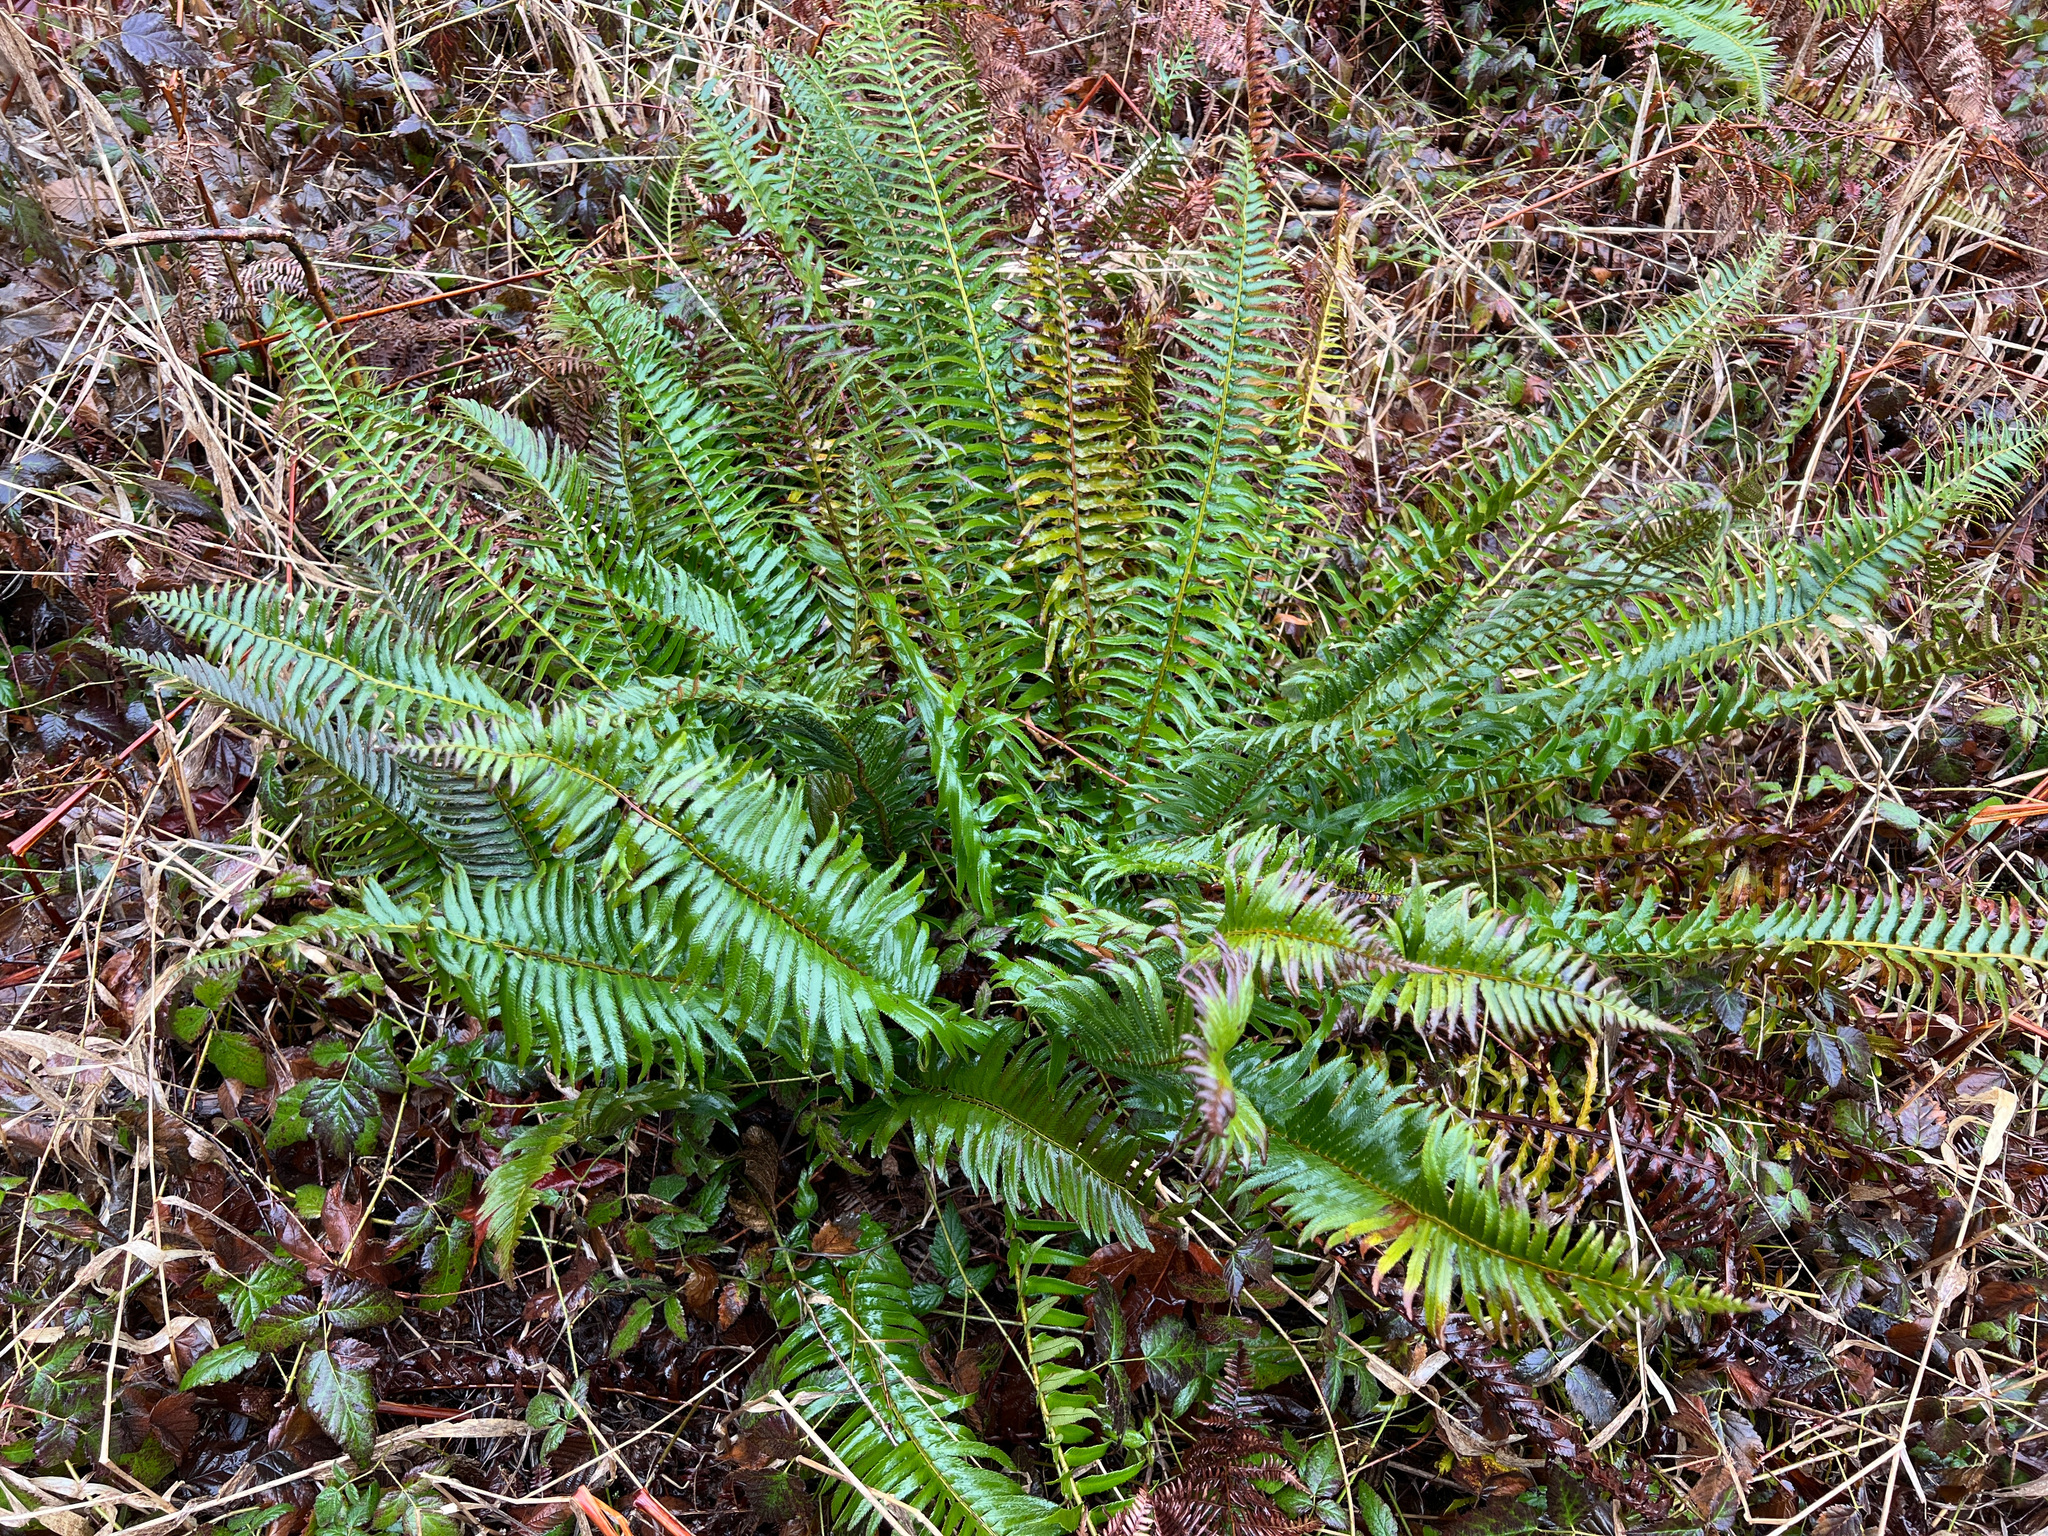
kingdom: Plantae
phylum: Tracheophyta
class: Polypodiopsida
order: Polypodiales
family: Dryopteridaceae
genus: Polystichum
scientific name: Polystichum munitum
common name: Western sword-fern
